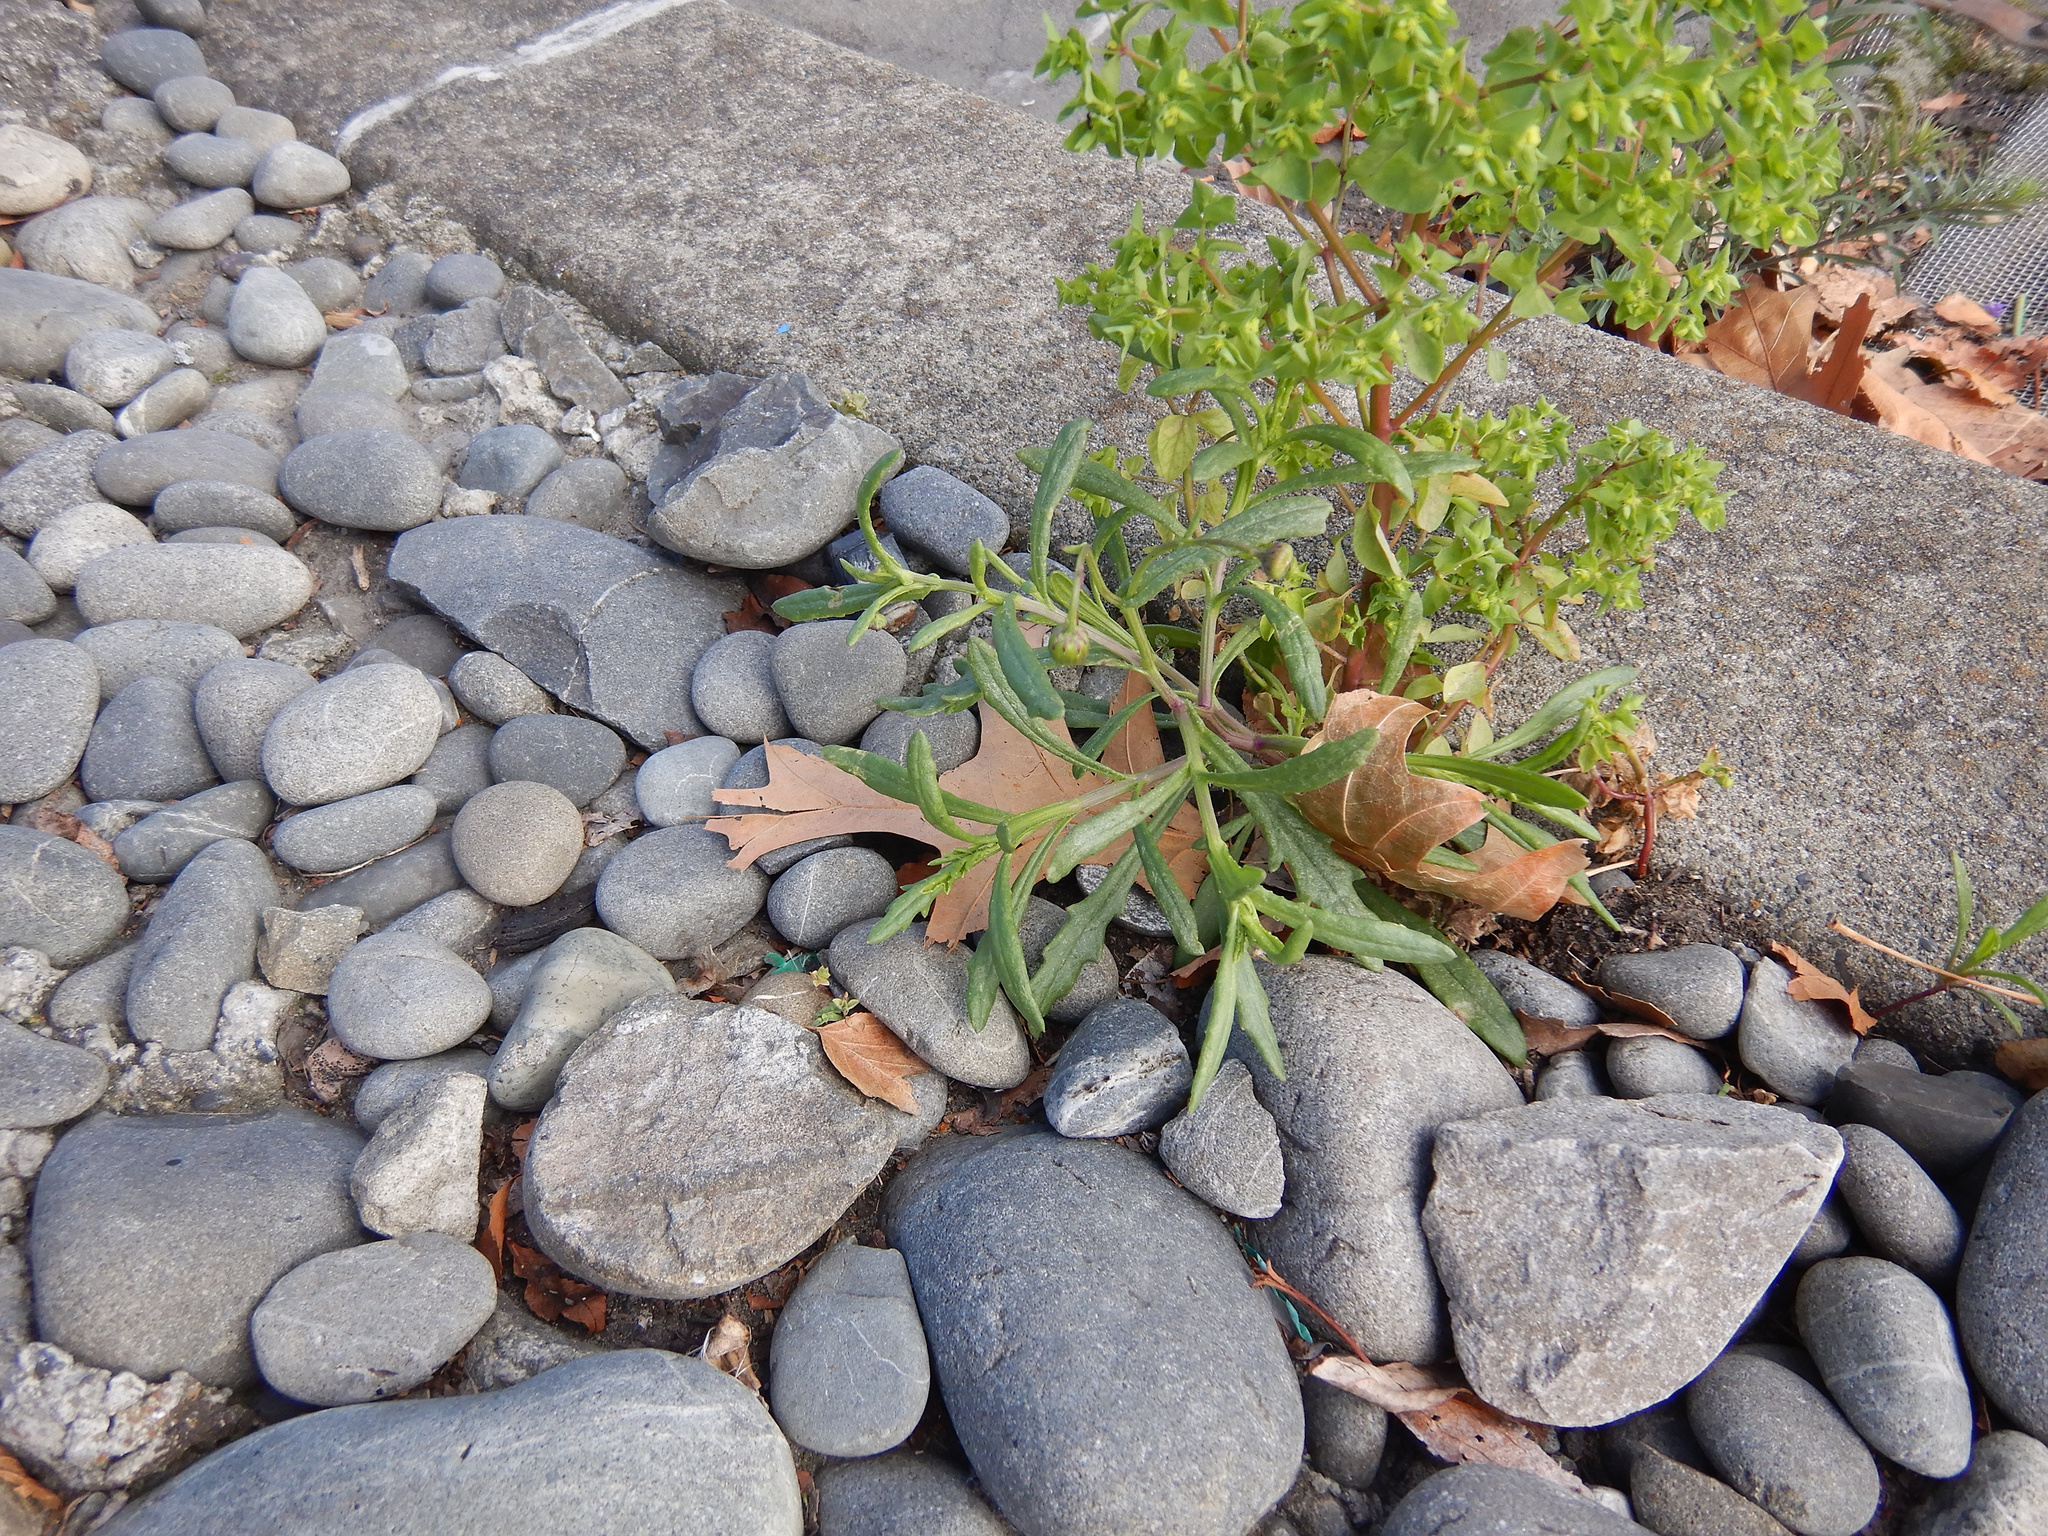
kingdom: Plantae
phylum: Tracheophyta
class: Magnoliopsida
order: Asterales
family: Asteraceae
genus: Senecio
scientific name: Senecio skirrhodon
